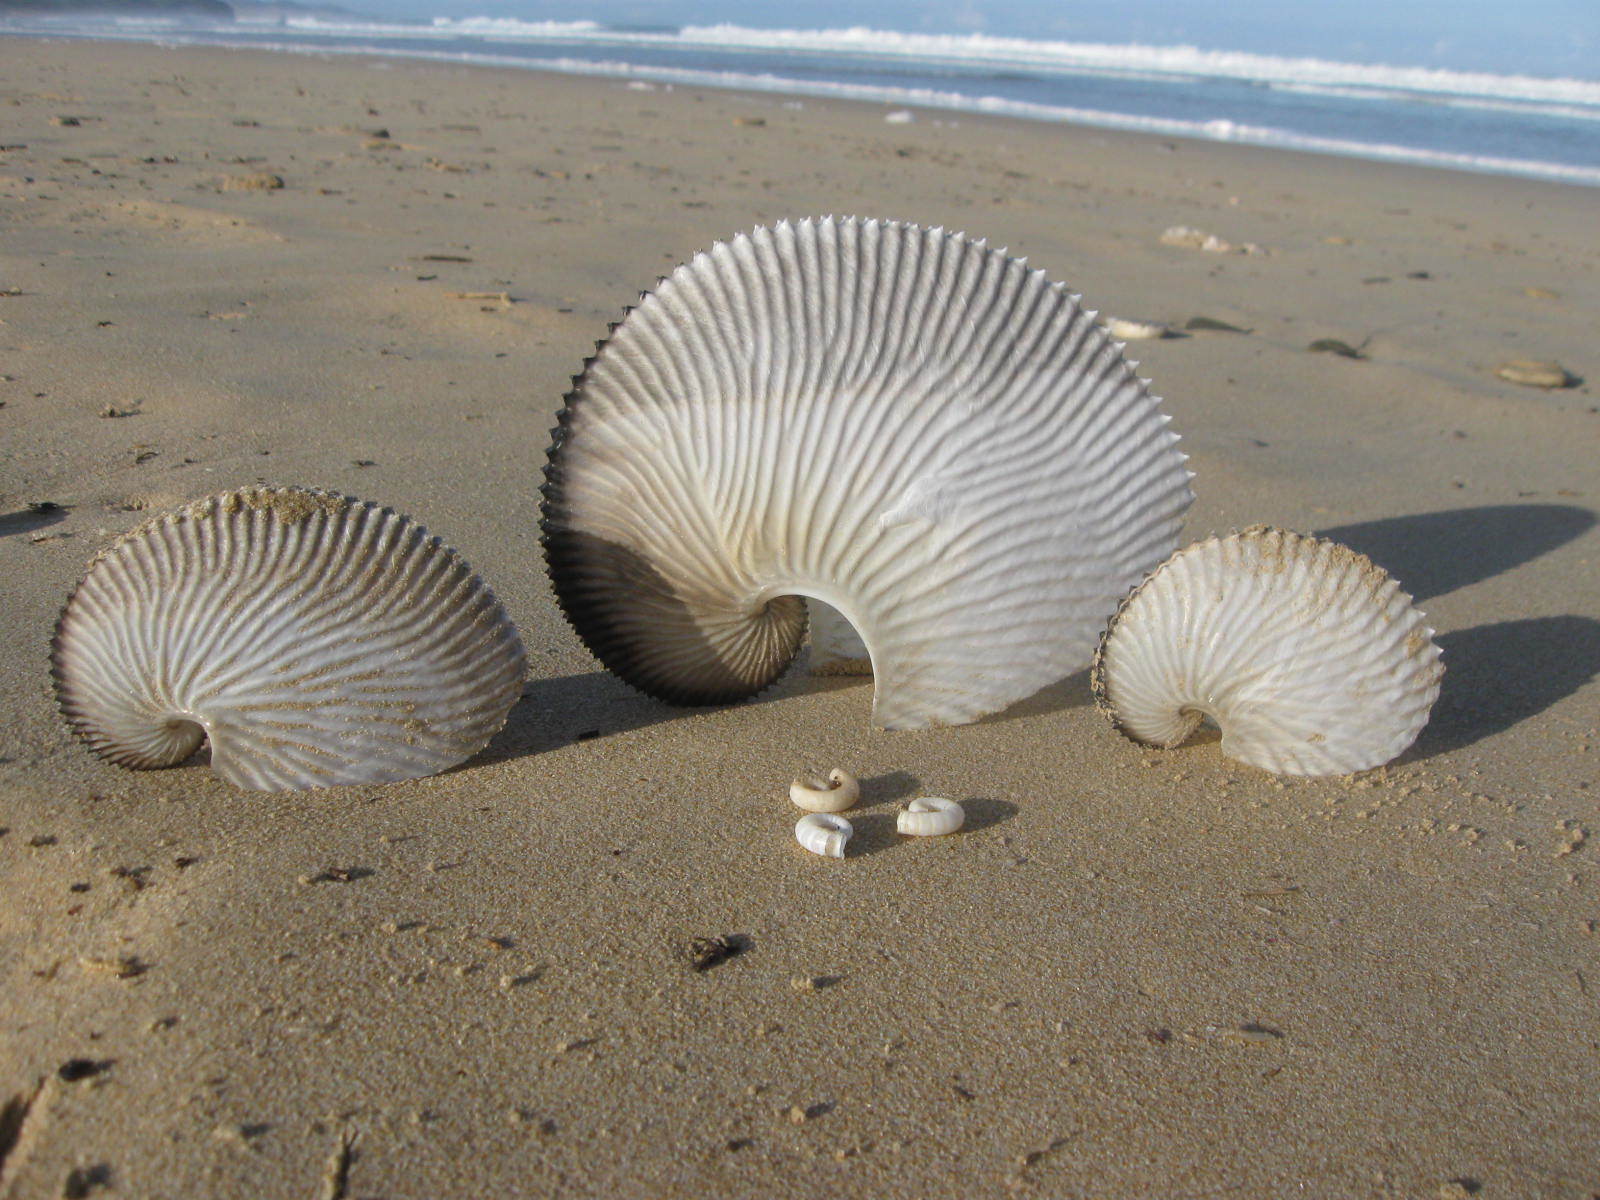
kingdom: Animalia
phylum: Mollusca
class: Cephalopoda
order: Octopoda
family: Argonautidae
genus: Argonauta
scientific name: Argonauta argo
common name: Common paper nautilus
